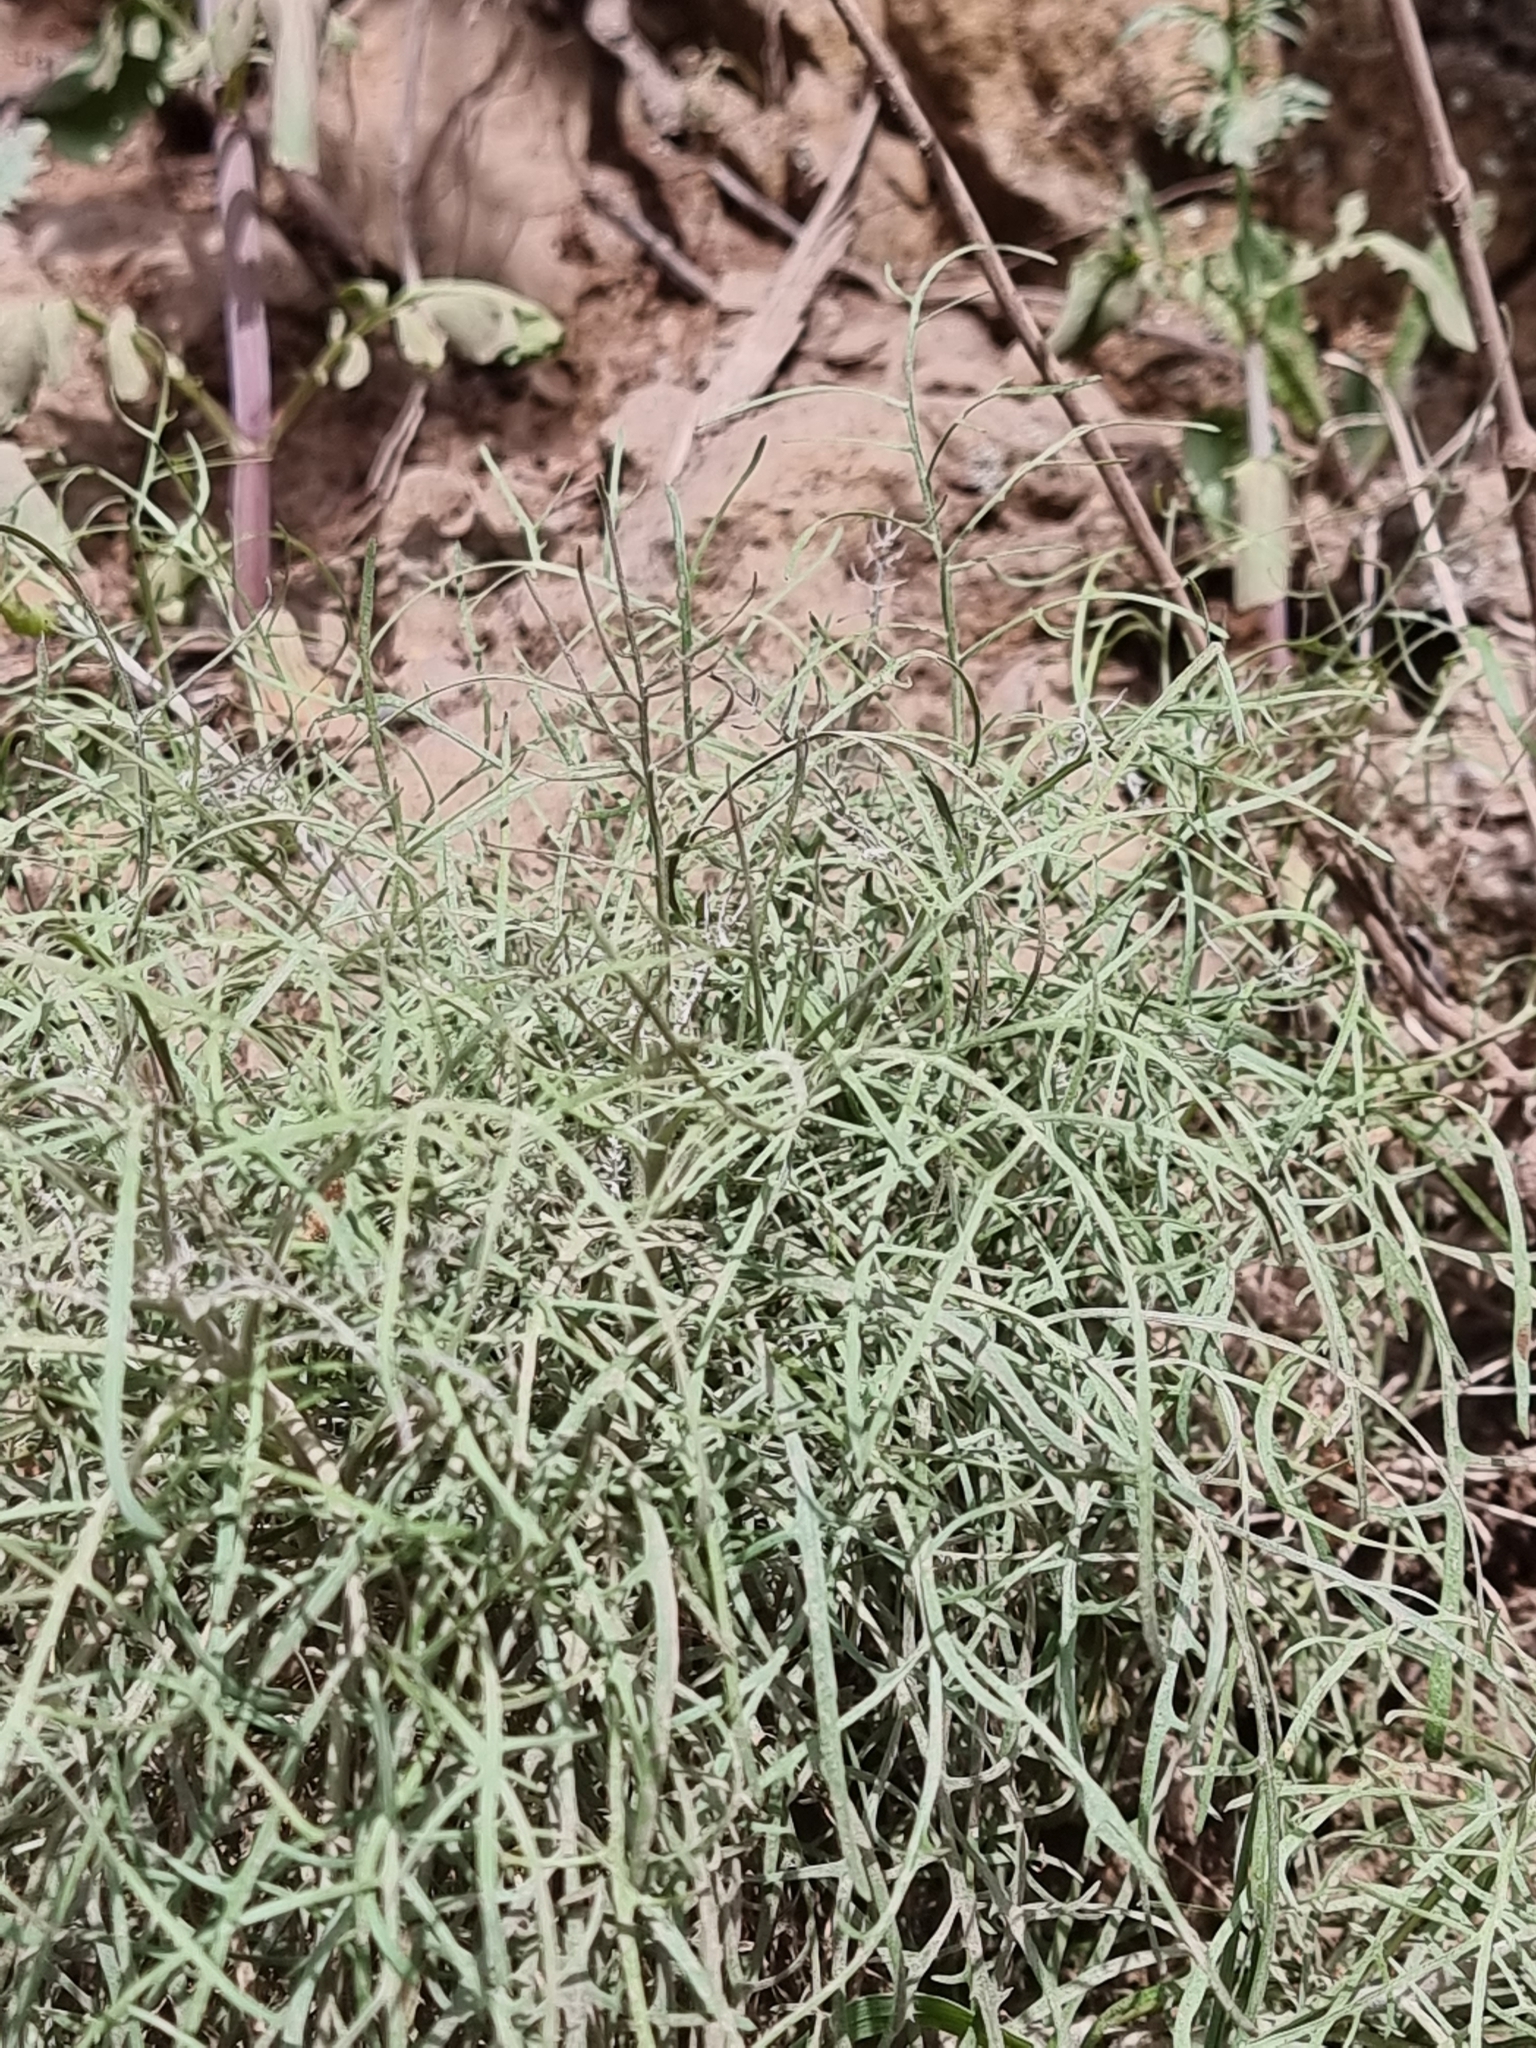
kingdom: Plantae
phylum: Tracheophyta
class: Magnoliopsida
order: Asterales
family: Asteraceae
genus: Tolpis
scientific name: Tolpis succulenta
